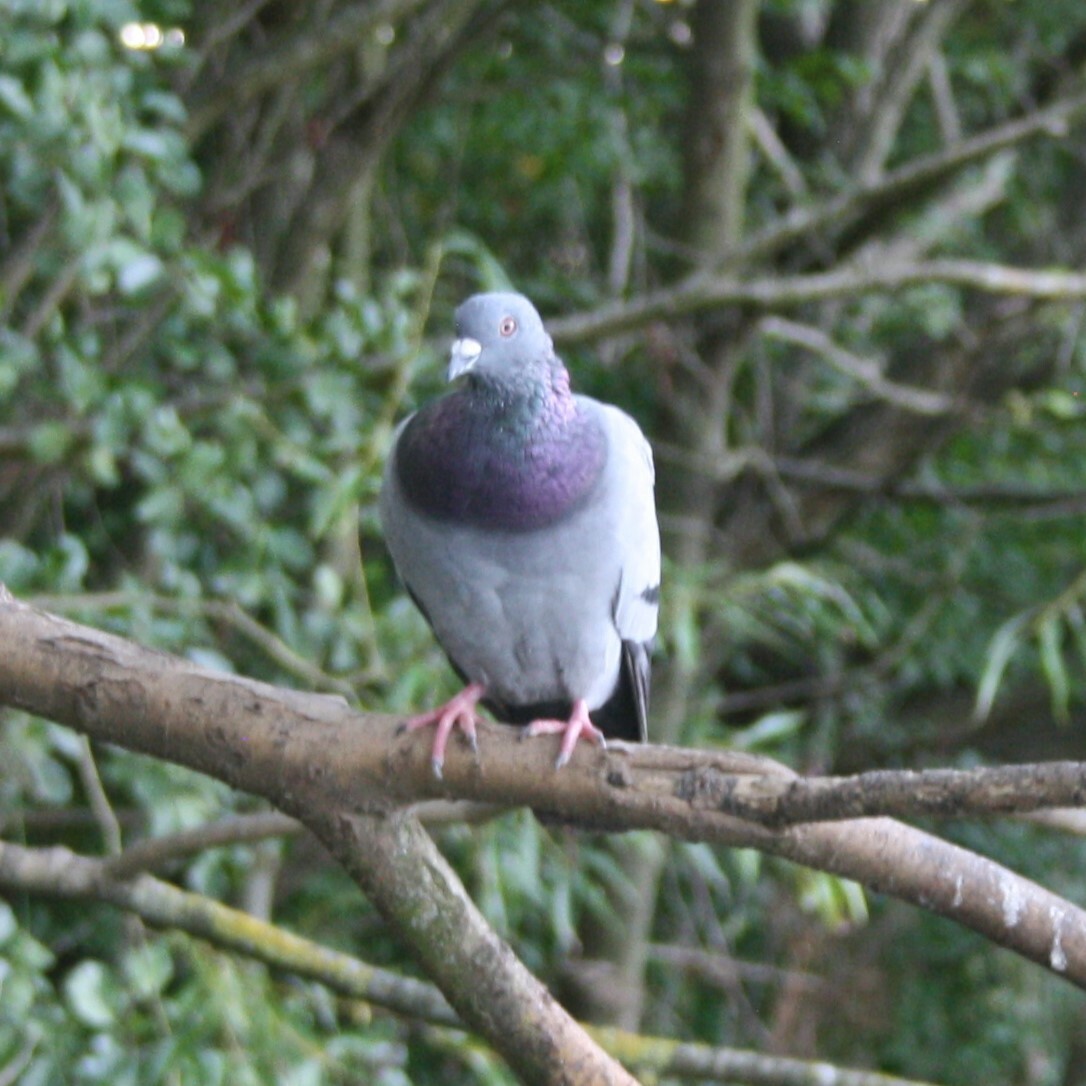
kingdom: Animalia
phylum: Chordata
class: Aves
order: Columbiformes
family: Columbidae
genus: Columba
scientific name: Columba livia
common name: Rock pigeon
